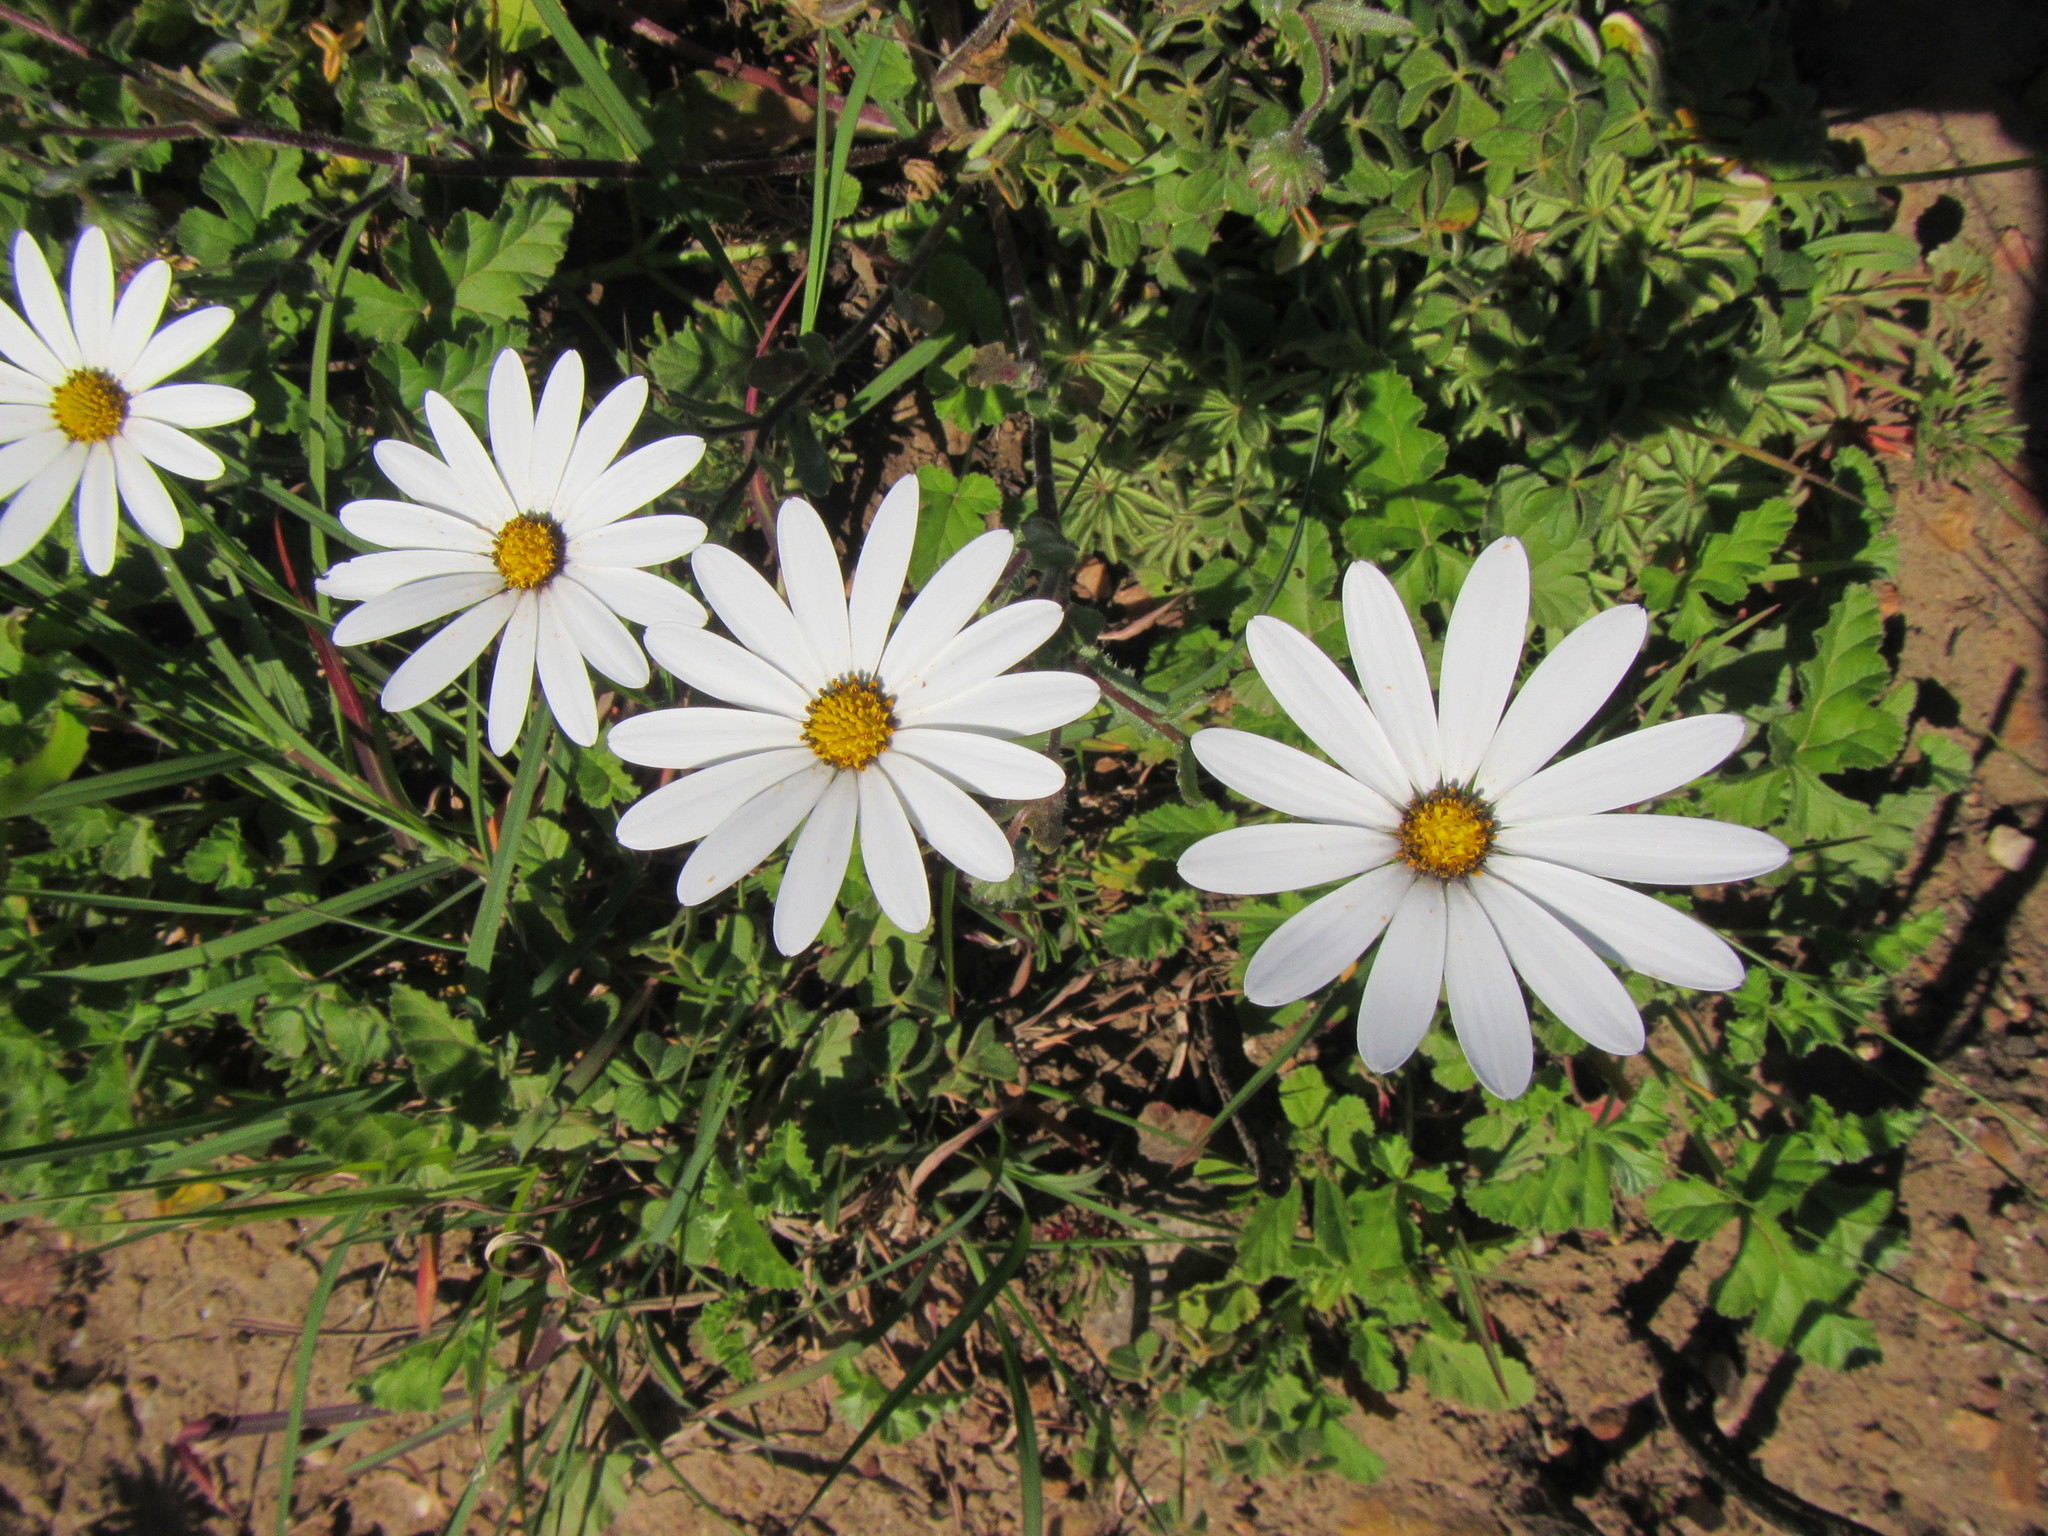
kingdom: Plantae
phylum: Tracheophyta
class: Magnoliopsida
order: Asterales
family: Asteraceae
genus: Dimorphotheca
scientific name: Dimorphotheca pluvialis
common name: Weather prophet
